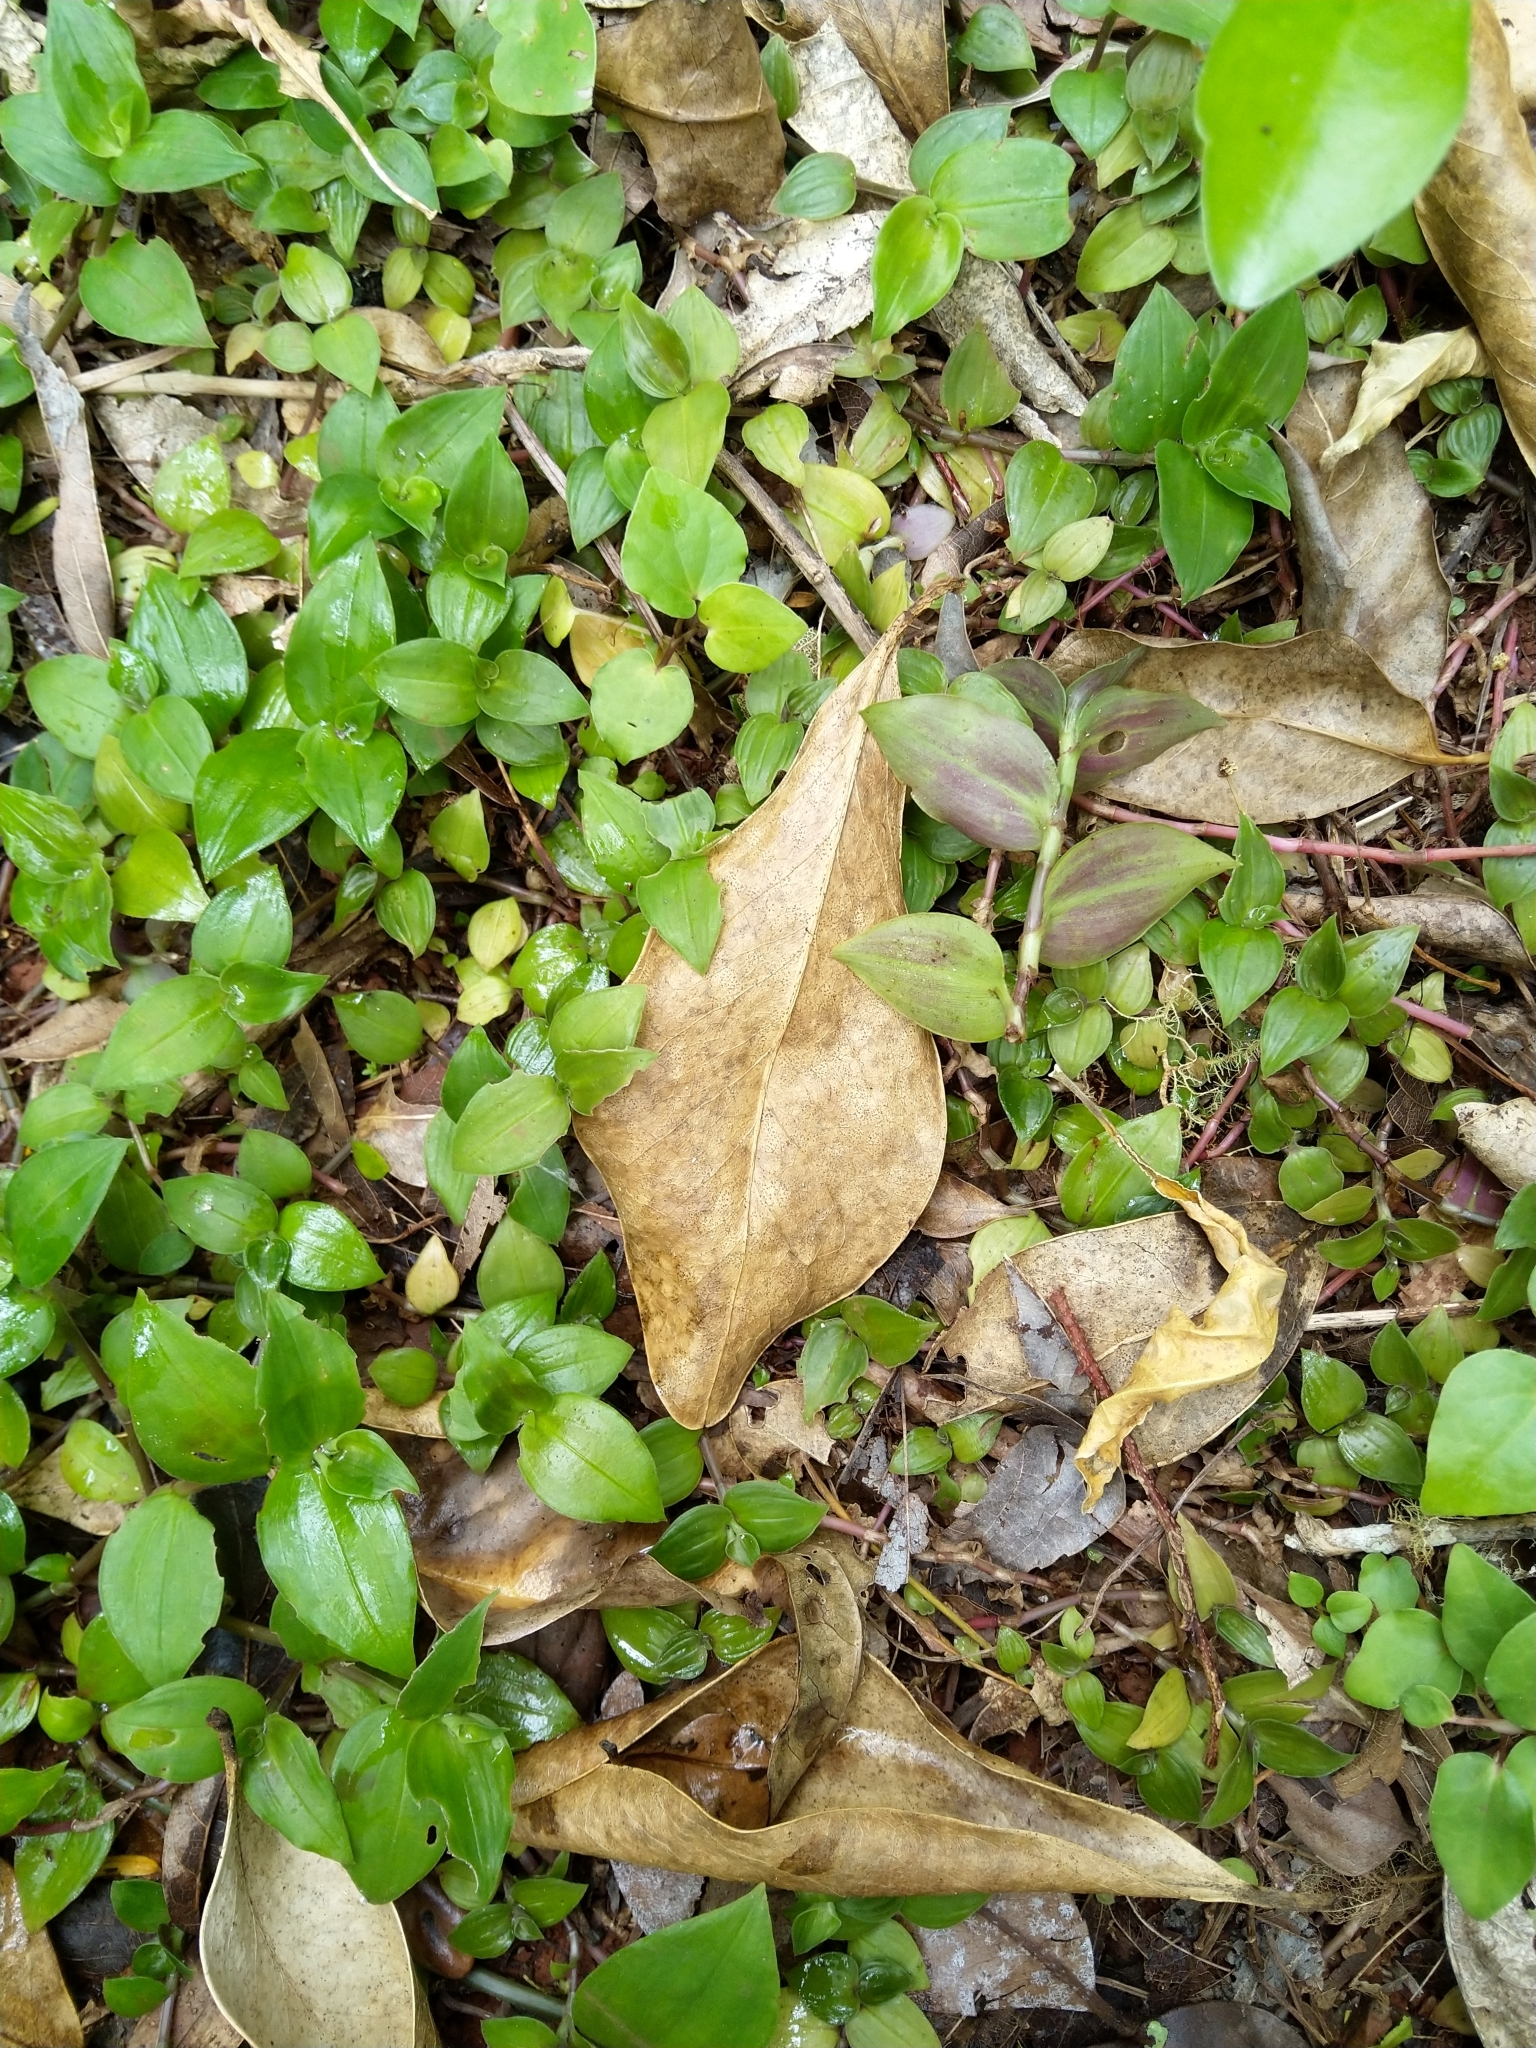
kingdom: Plantae
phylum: Tracheophyta
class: Liliopsida
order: Commelinales
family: Commelinaceae
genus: Tradescantia
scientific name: Tradescantia fluminensis
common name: Wandering-jew
